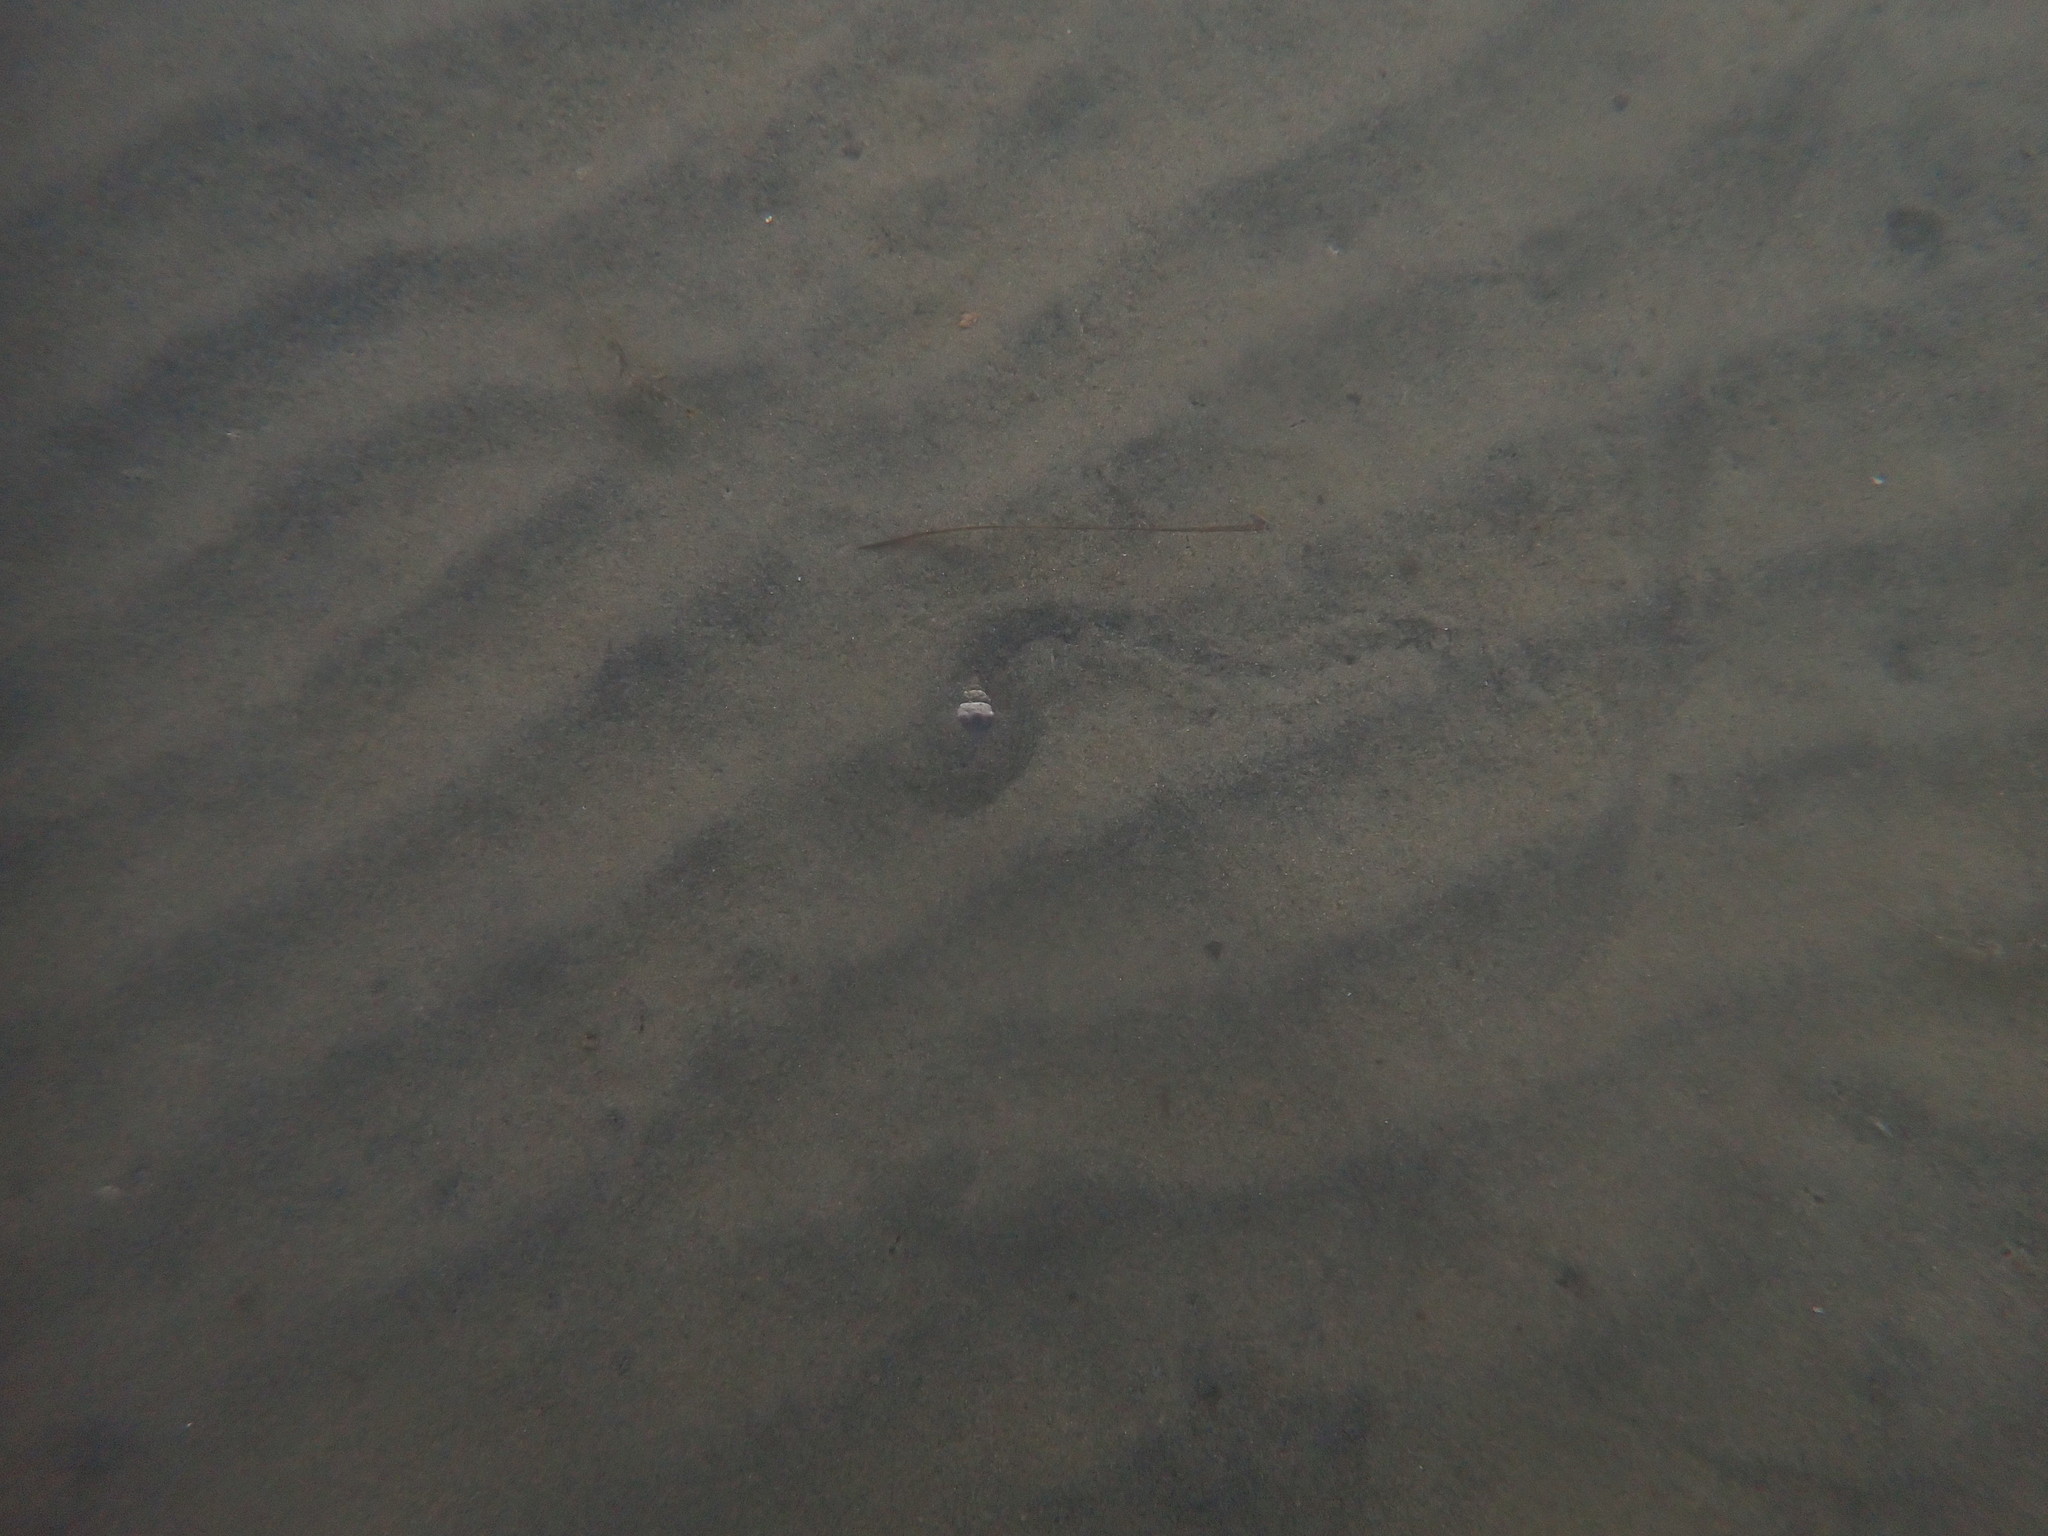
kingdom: Animalia
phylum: Mollusca
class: Gastropoda
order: Neogastropoda
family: Cominellidae
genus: Cominella
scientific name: Cominella glandiformis
